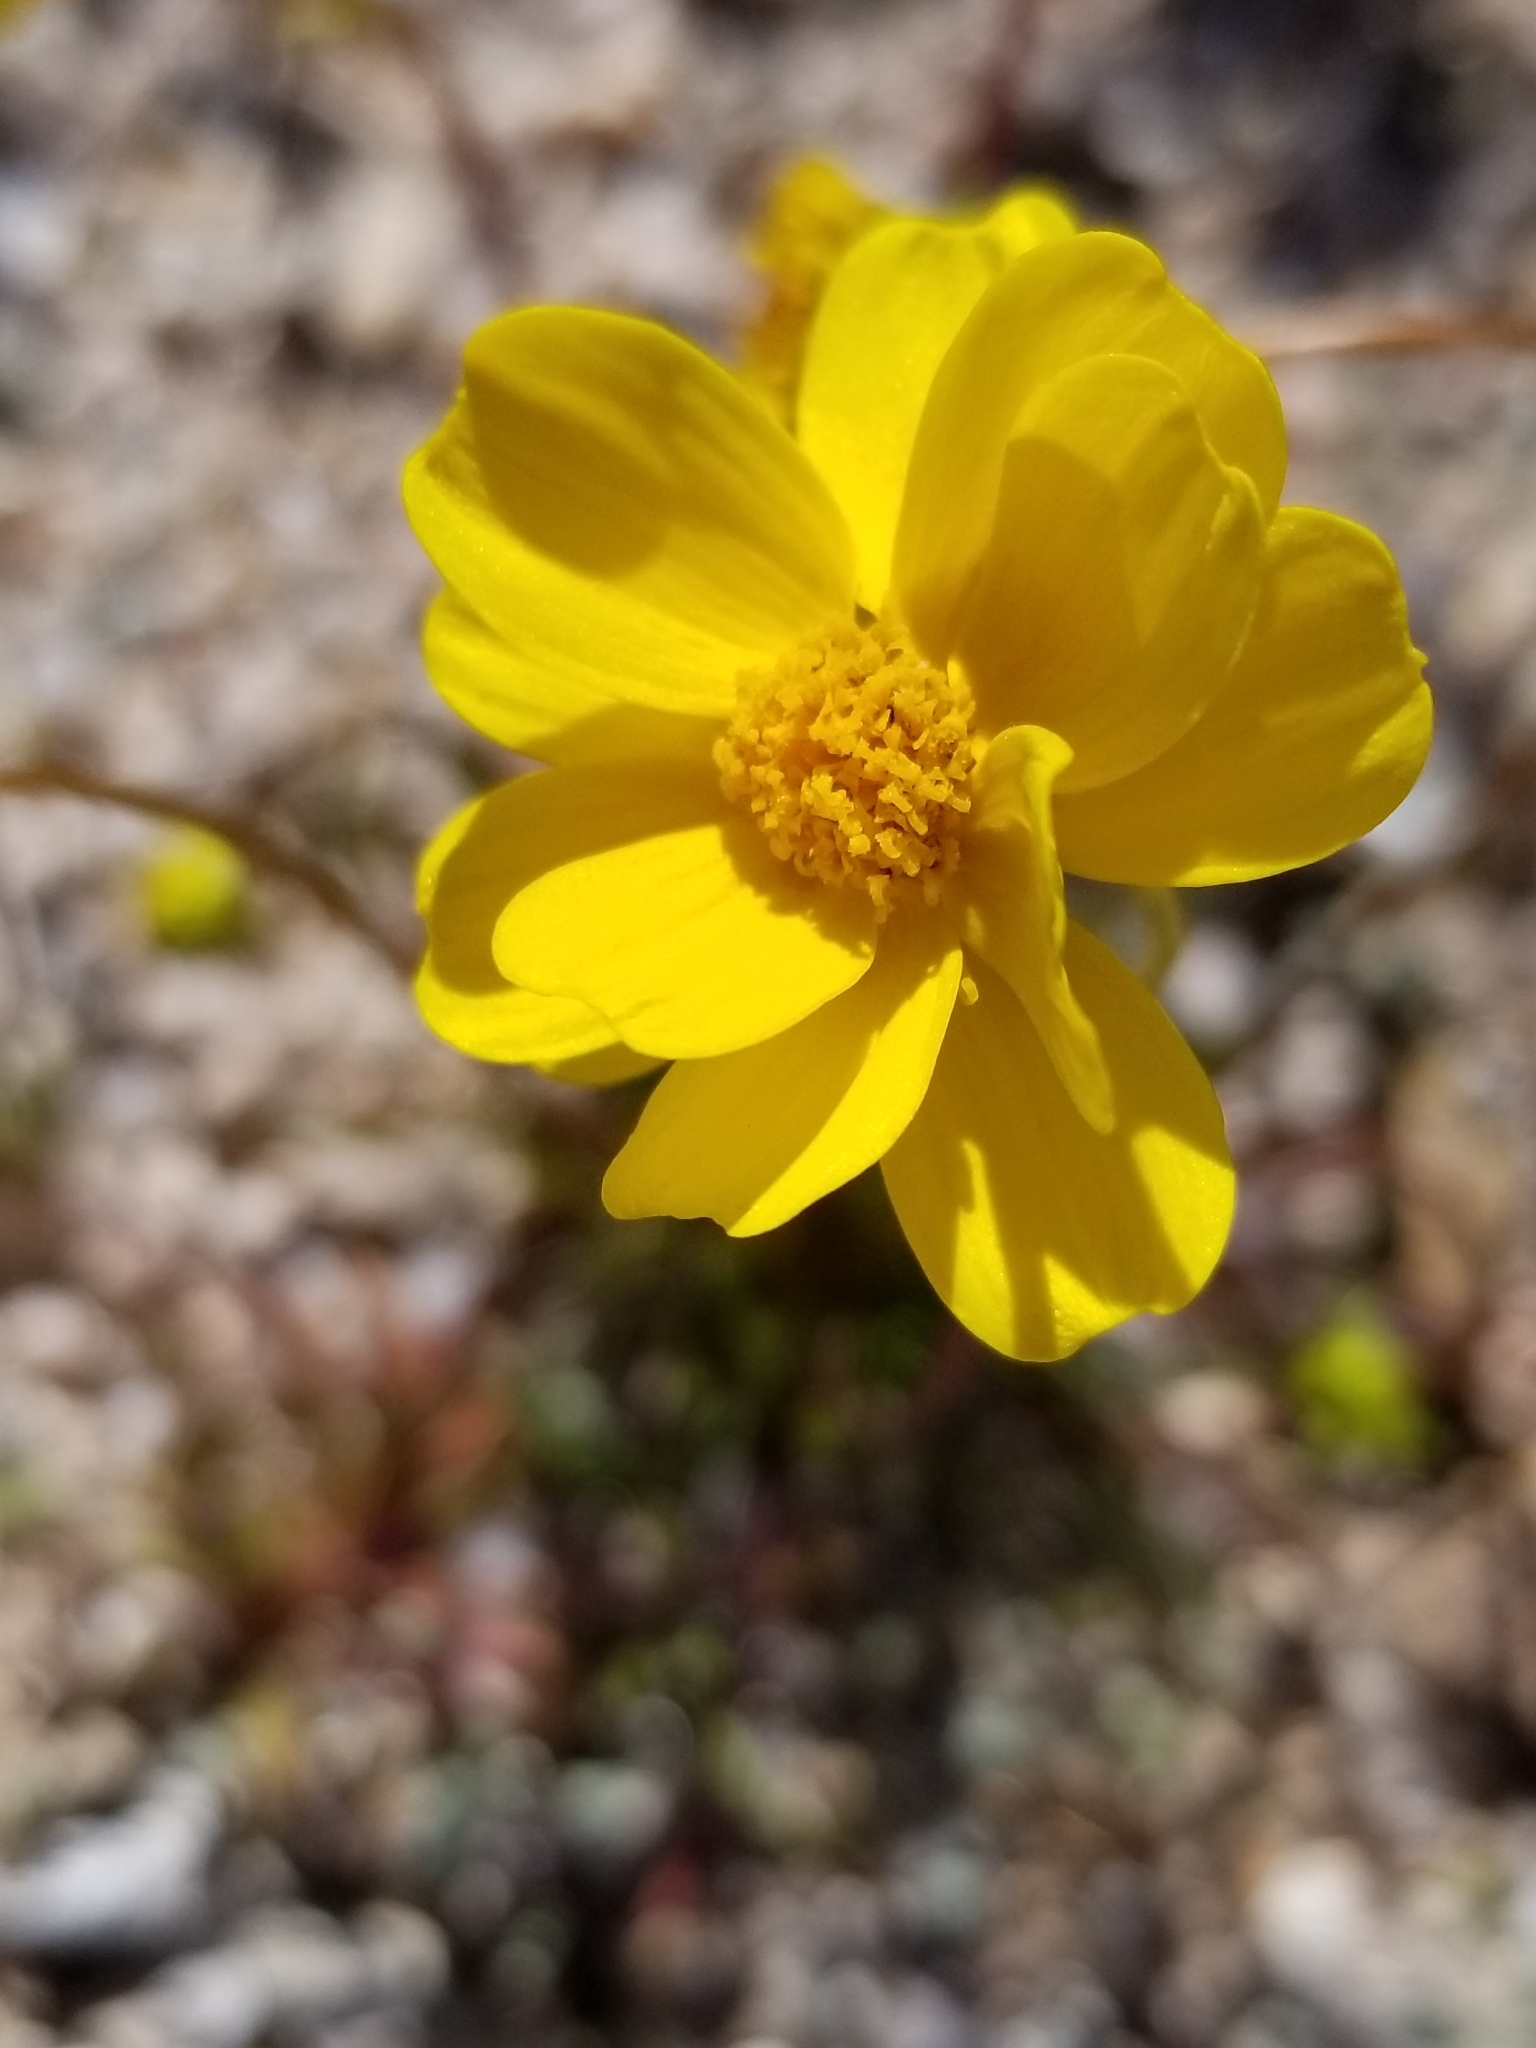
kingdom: Plantae
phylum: Tracheophyta
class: Magnoliopsida
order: Asterales
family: Asteraceae
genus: Coreopsis
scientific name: Coreopsis bigelovii
